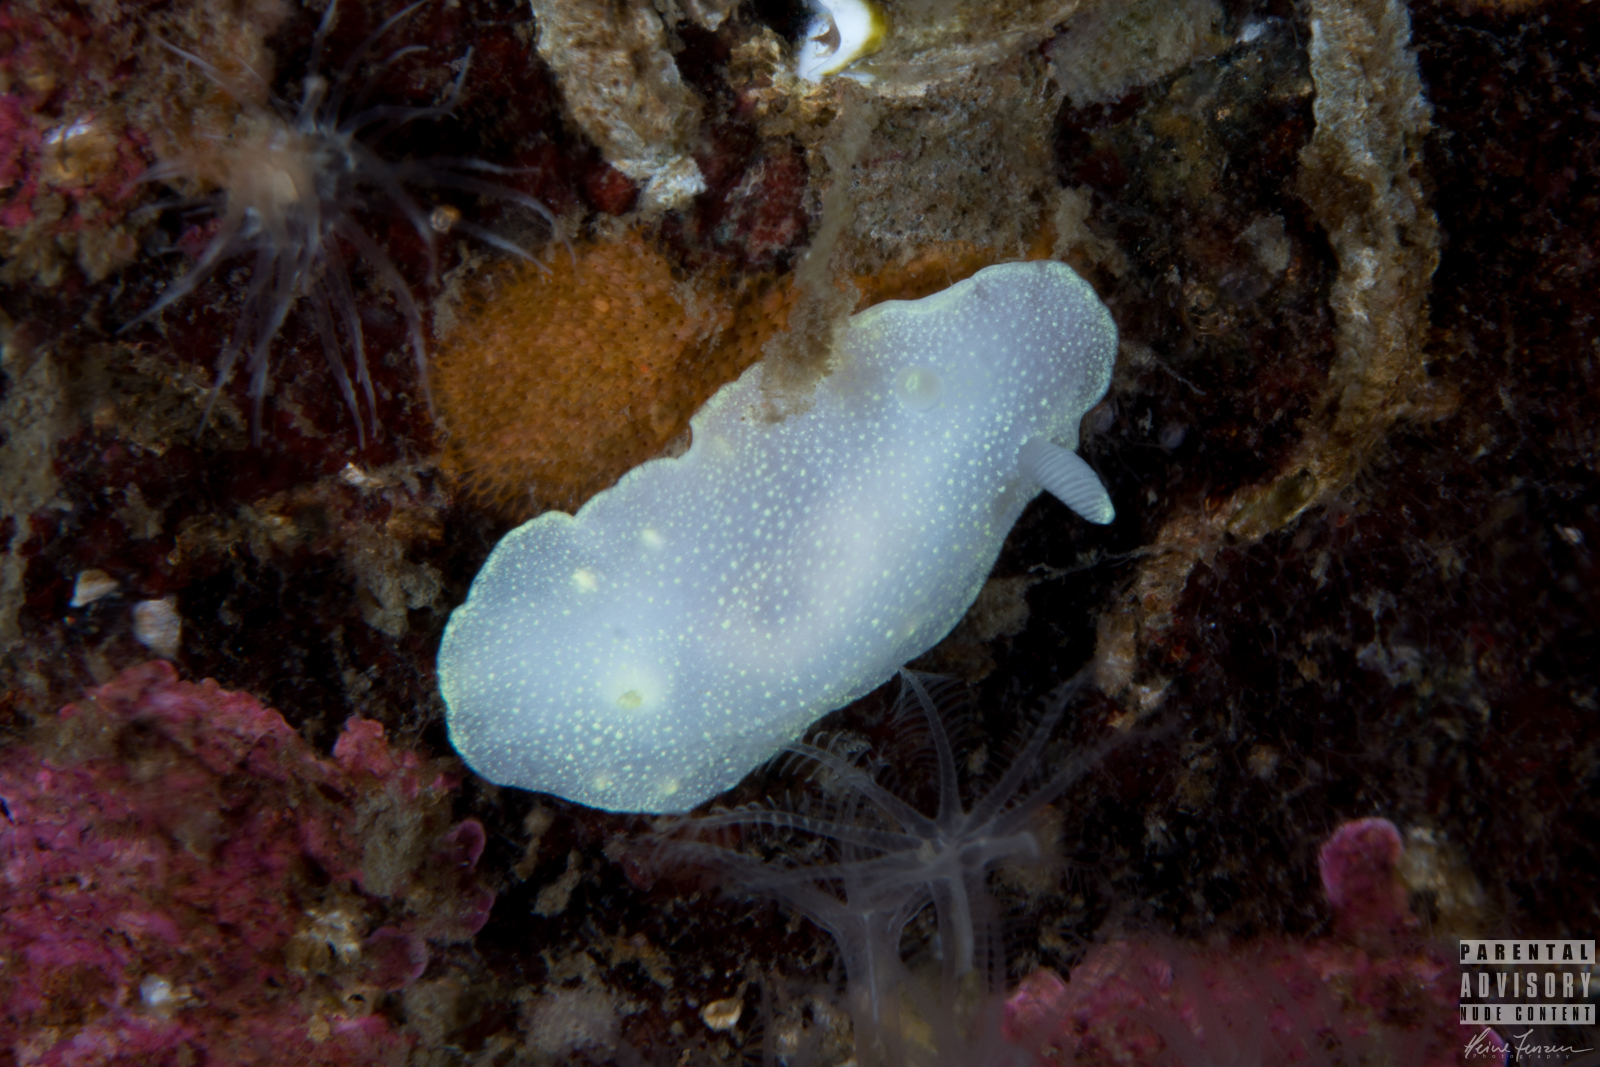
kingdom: Animalia
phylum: Mollusca
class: Gastropoda
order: Nudibranchia
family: Cadlinidae
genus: Cadlina
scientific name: Cadlina laevis
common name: White atlantic cadlina
